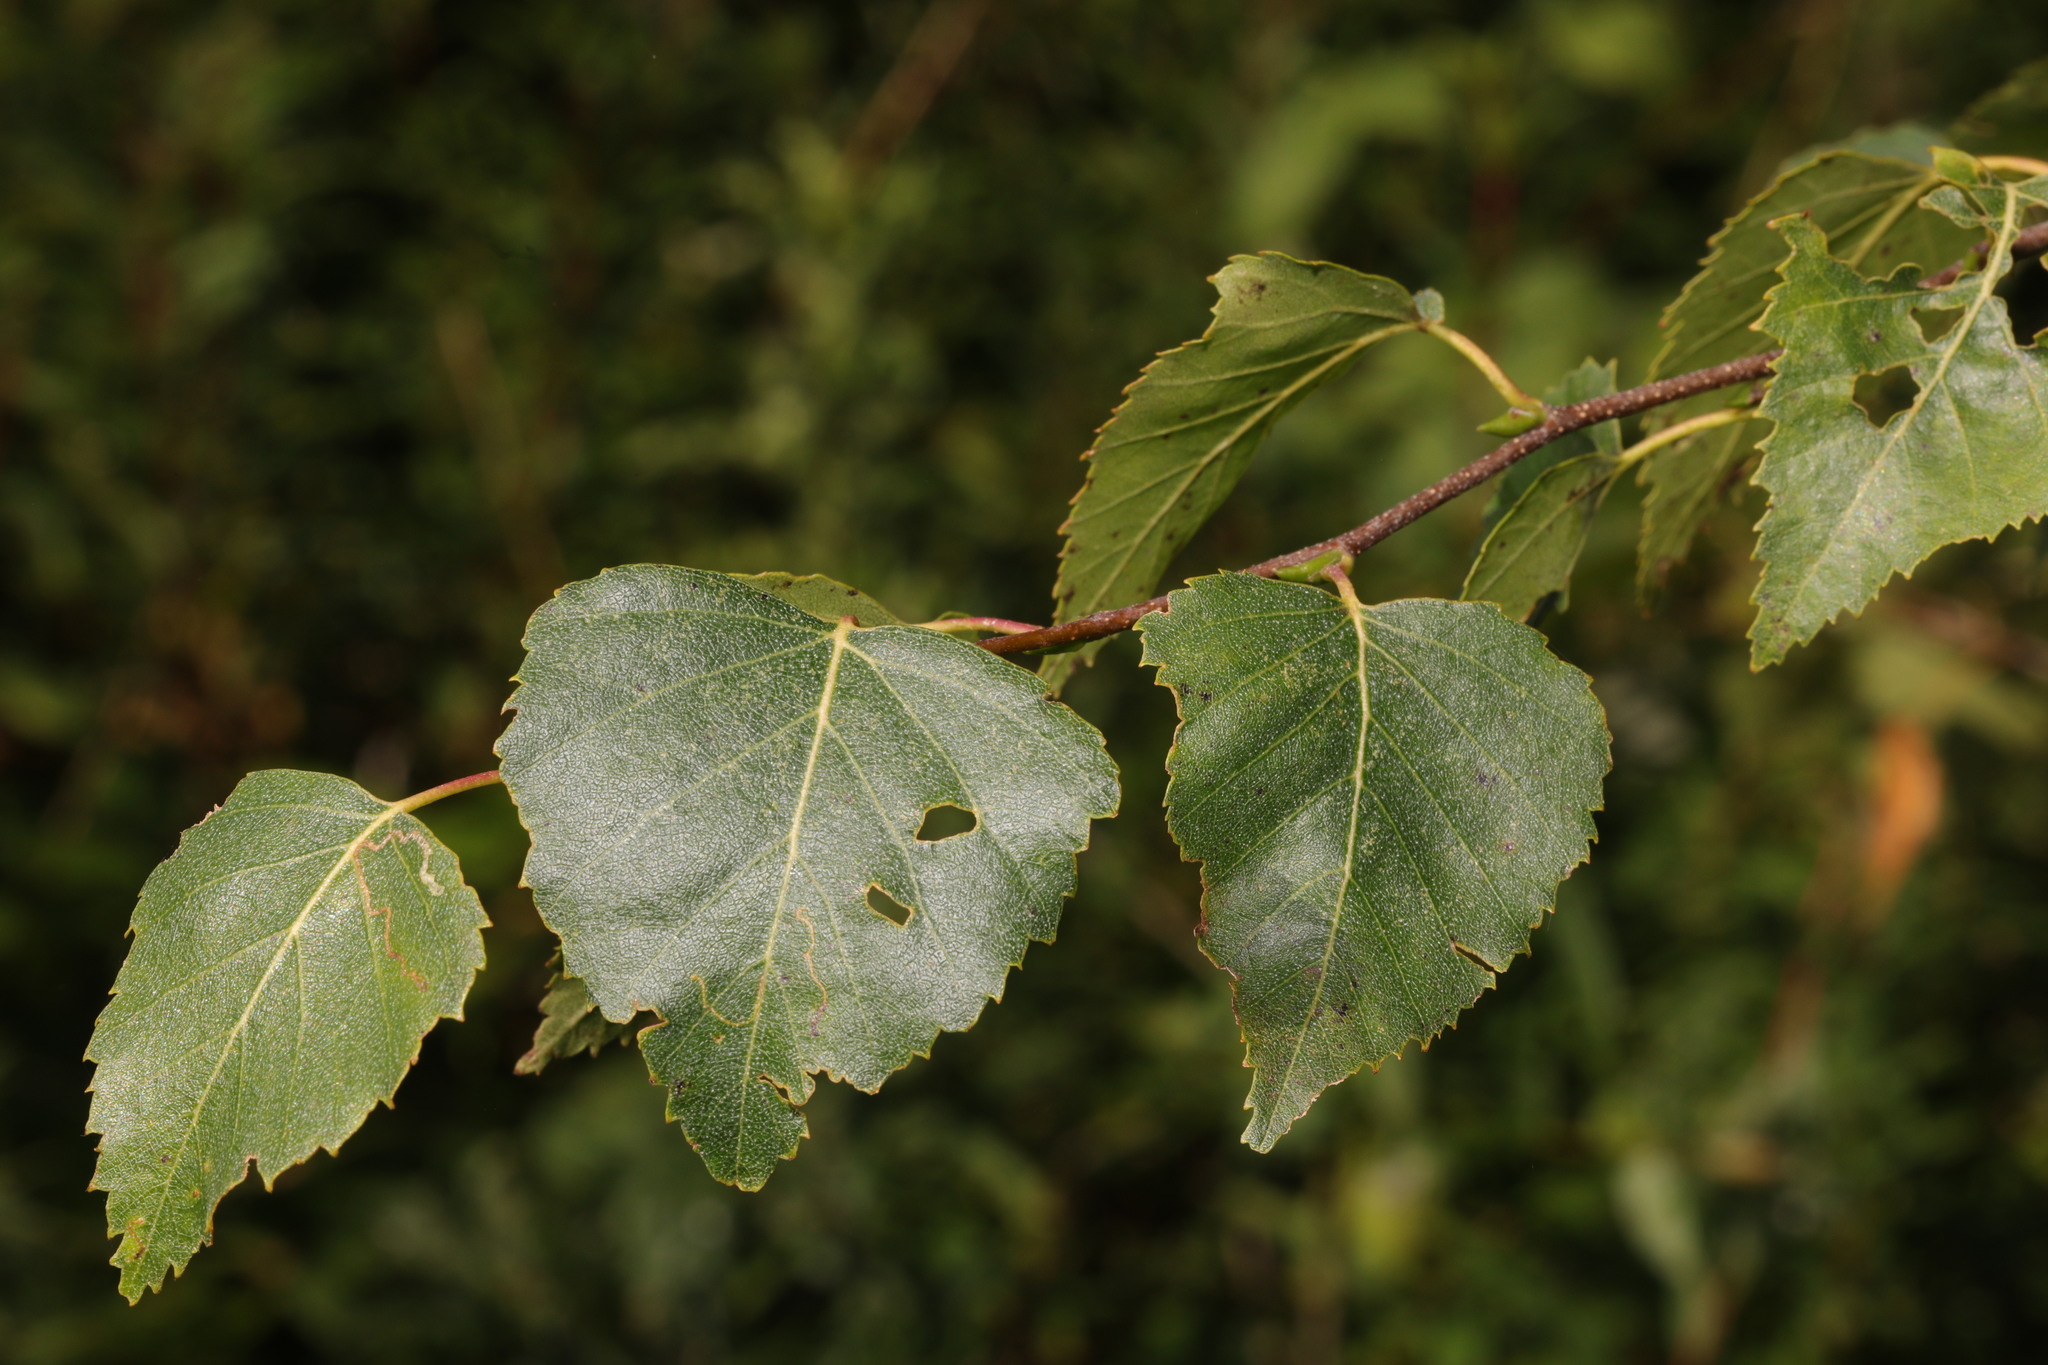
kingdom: Plantae
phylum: Tracheophyta
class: Magnoliopsida
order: Fagales
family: Betulaceae
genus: Betula
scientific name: Betula pendula
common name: Silver birch
